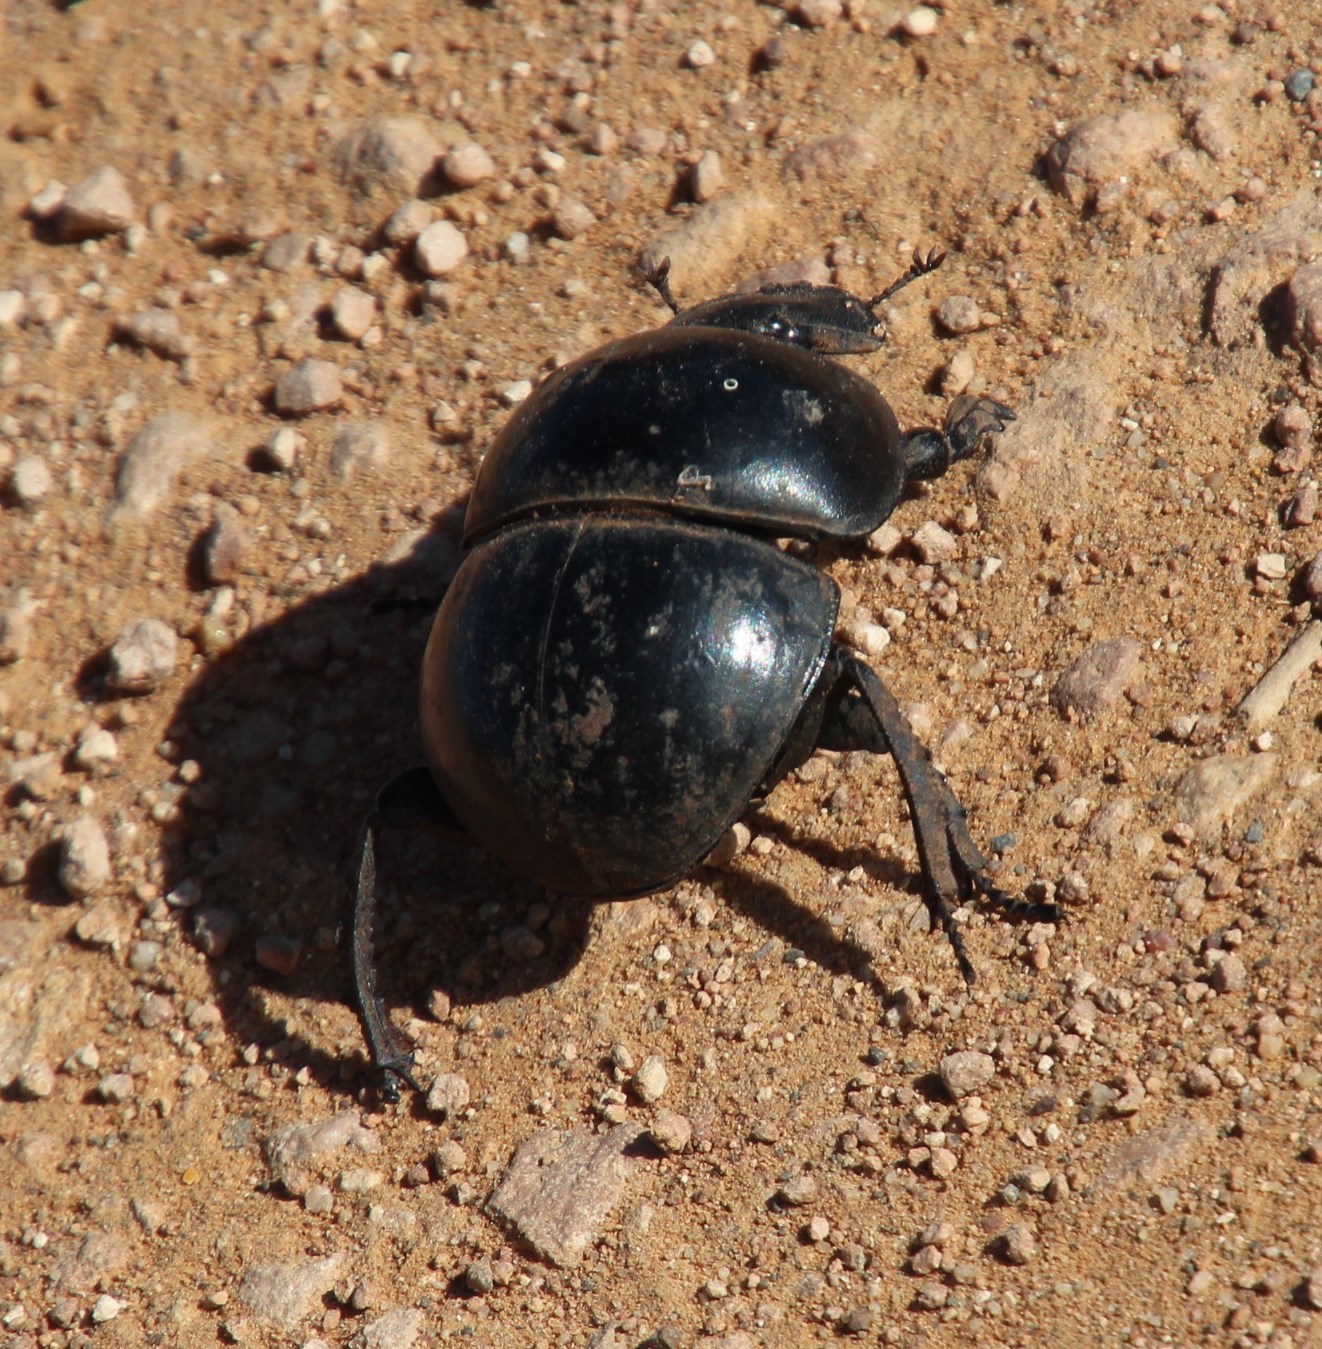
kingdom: Animalia
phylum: Arthropoda
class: Insecta
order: Coleoptera
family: Scarabaeidae
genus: Circellium
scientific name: Circellium bacchus
